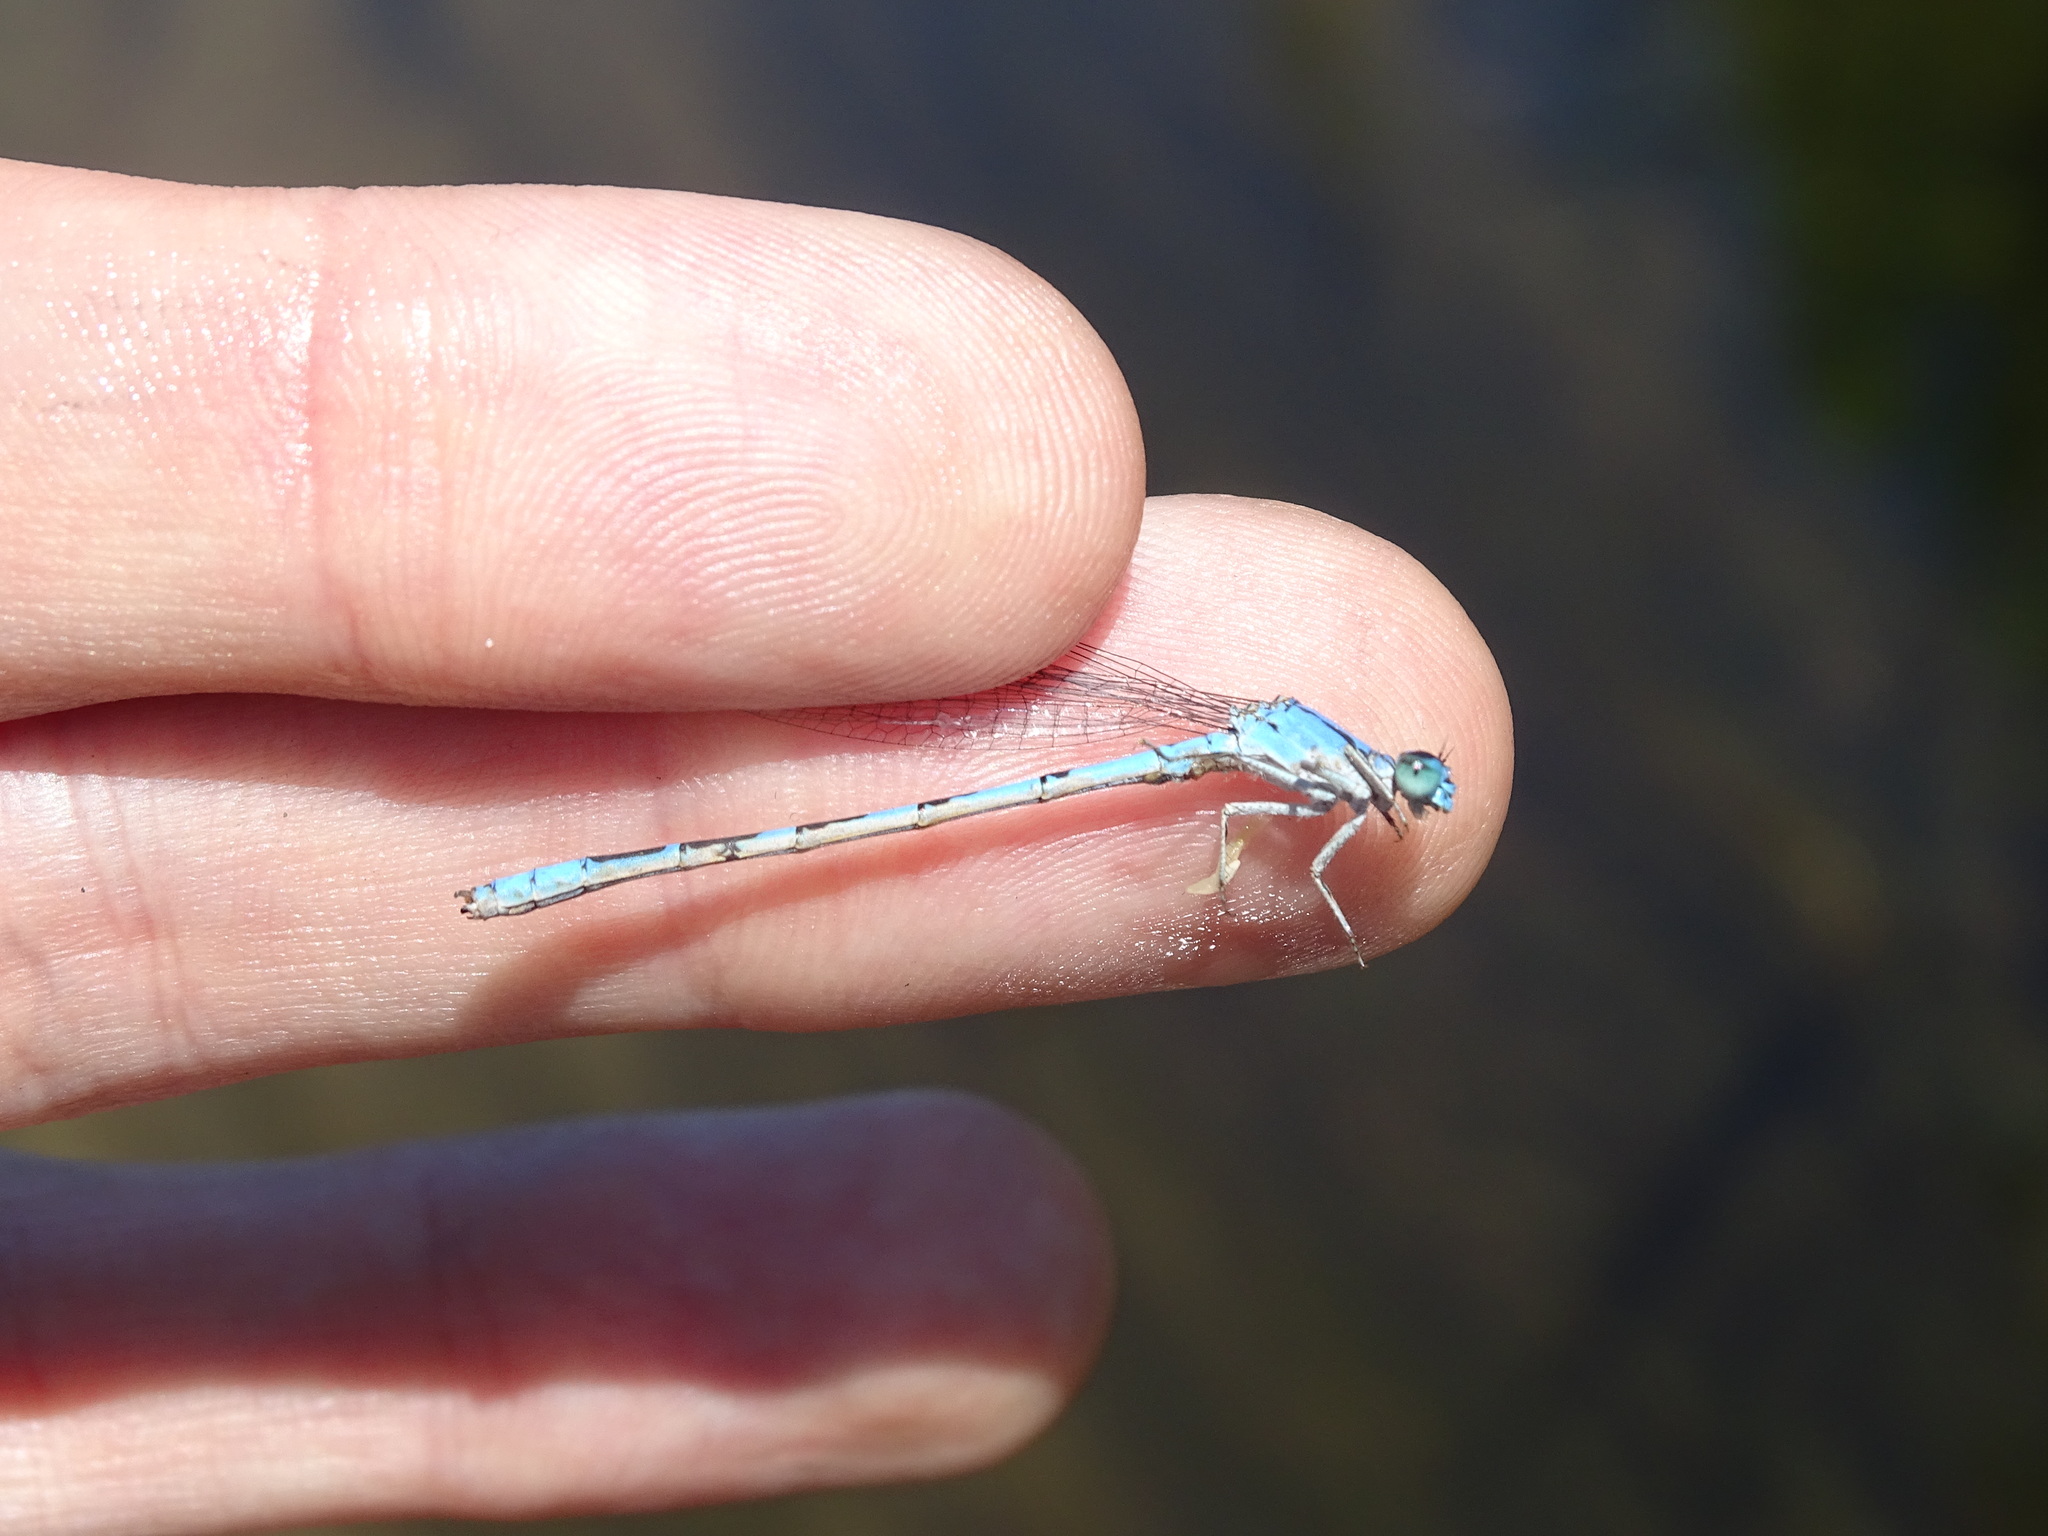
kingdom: Animalia
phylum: Arthropoda
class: Insecta
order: Odonata
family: Coenagrionidae
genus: Enallagma
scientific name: Enallagma anna
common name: River bluet
